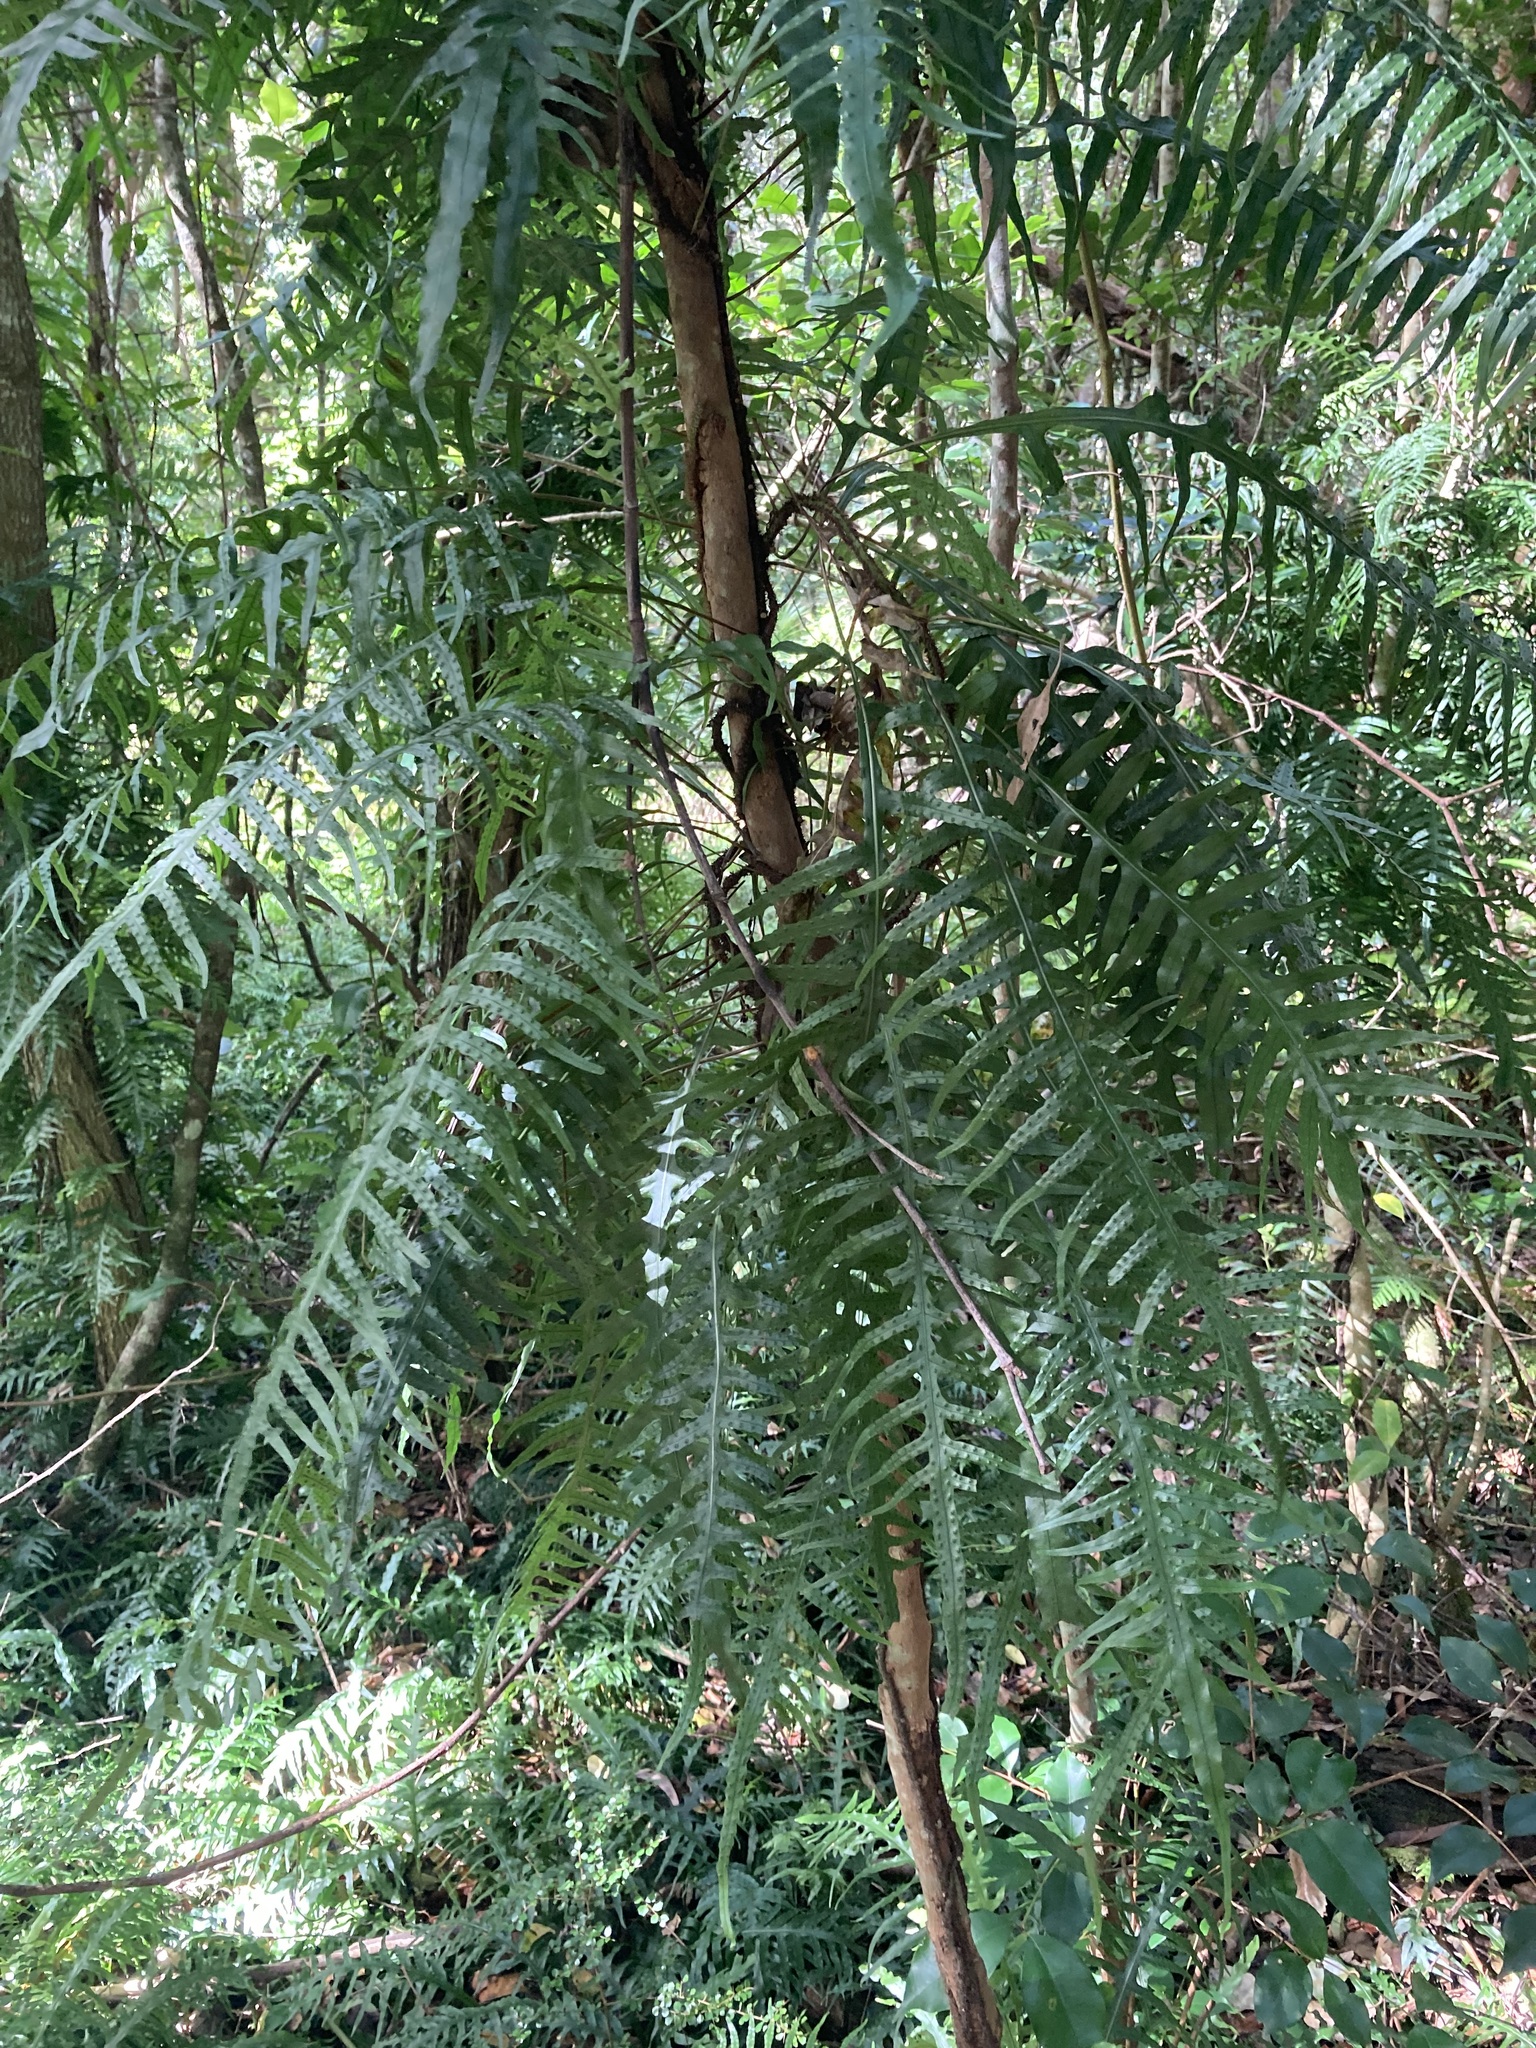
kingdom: Plantae
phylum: Tracheophyta
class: Polypodiopsida
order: Polypodiales
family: Polypodiaceae
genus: Lecanopteris
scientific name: Lecanopteris scandens
